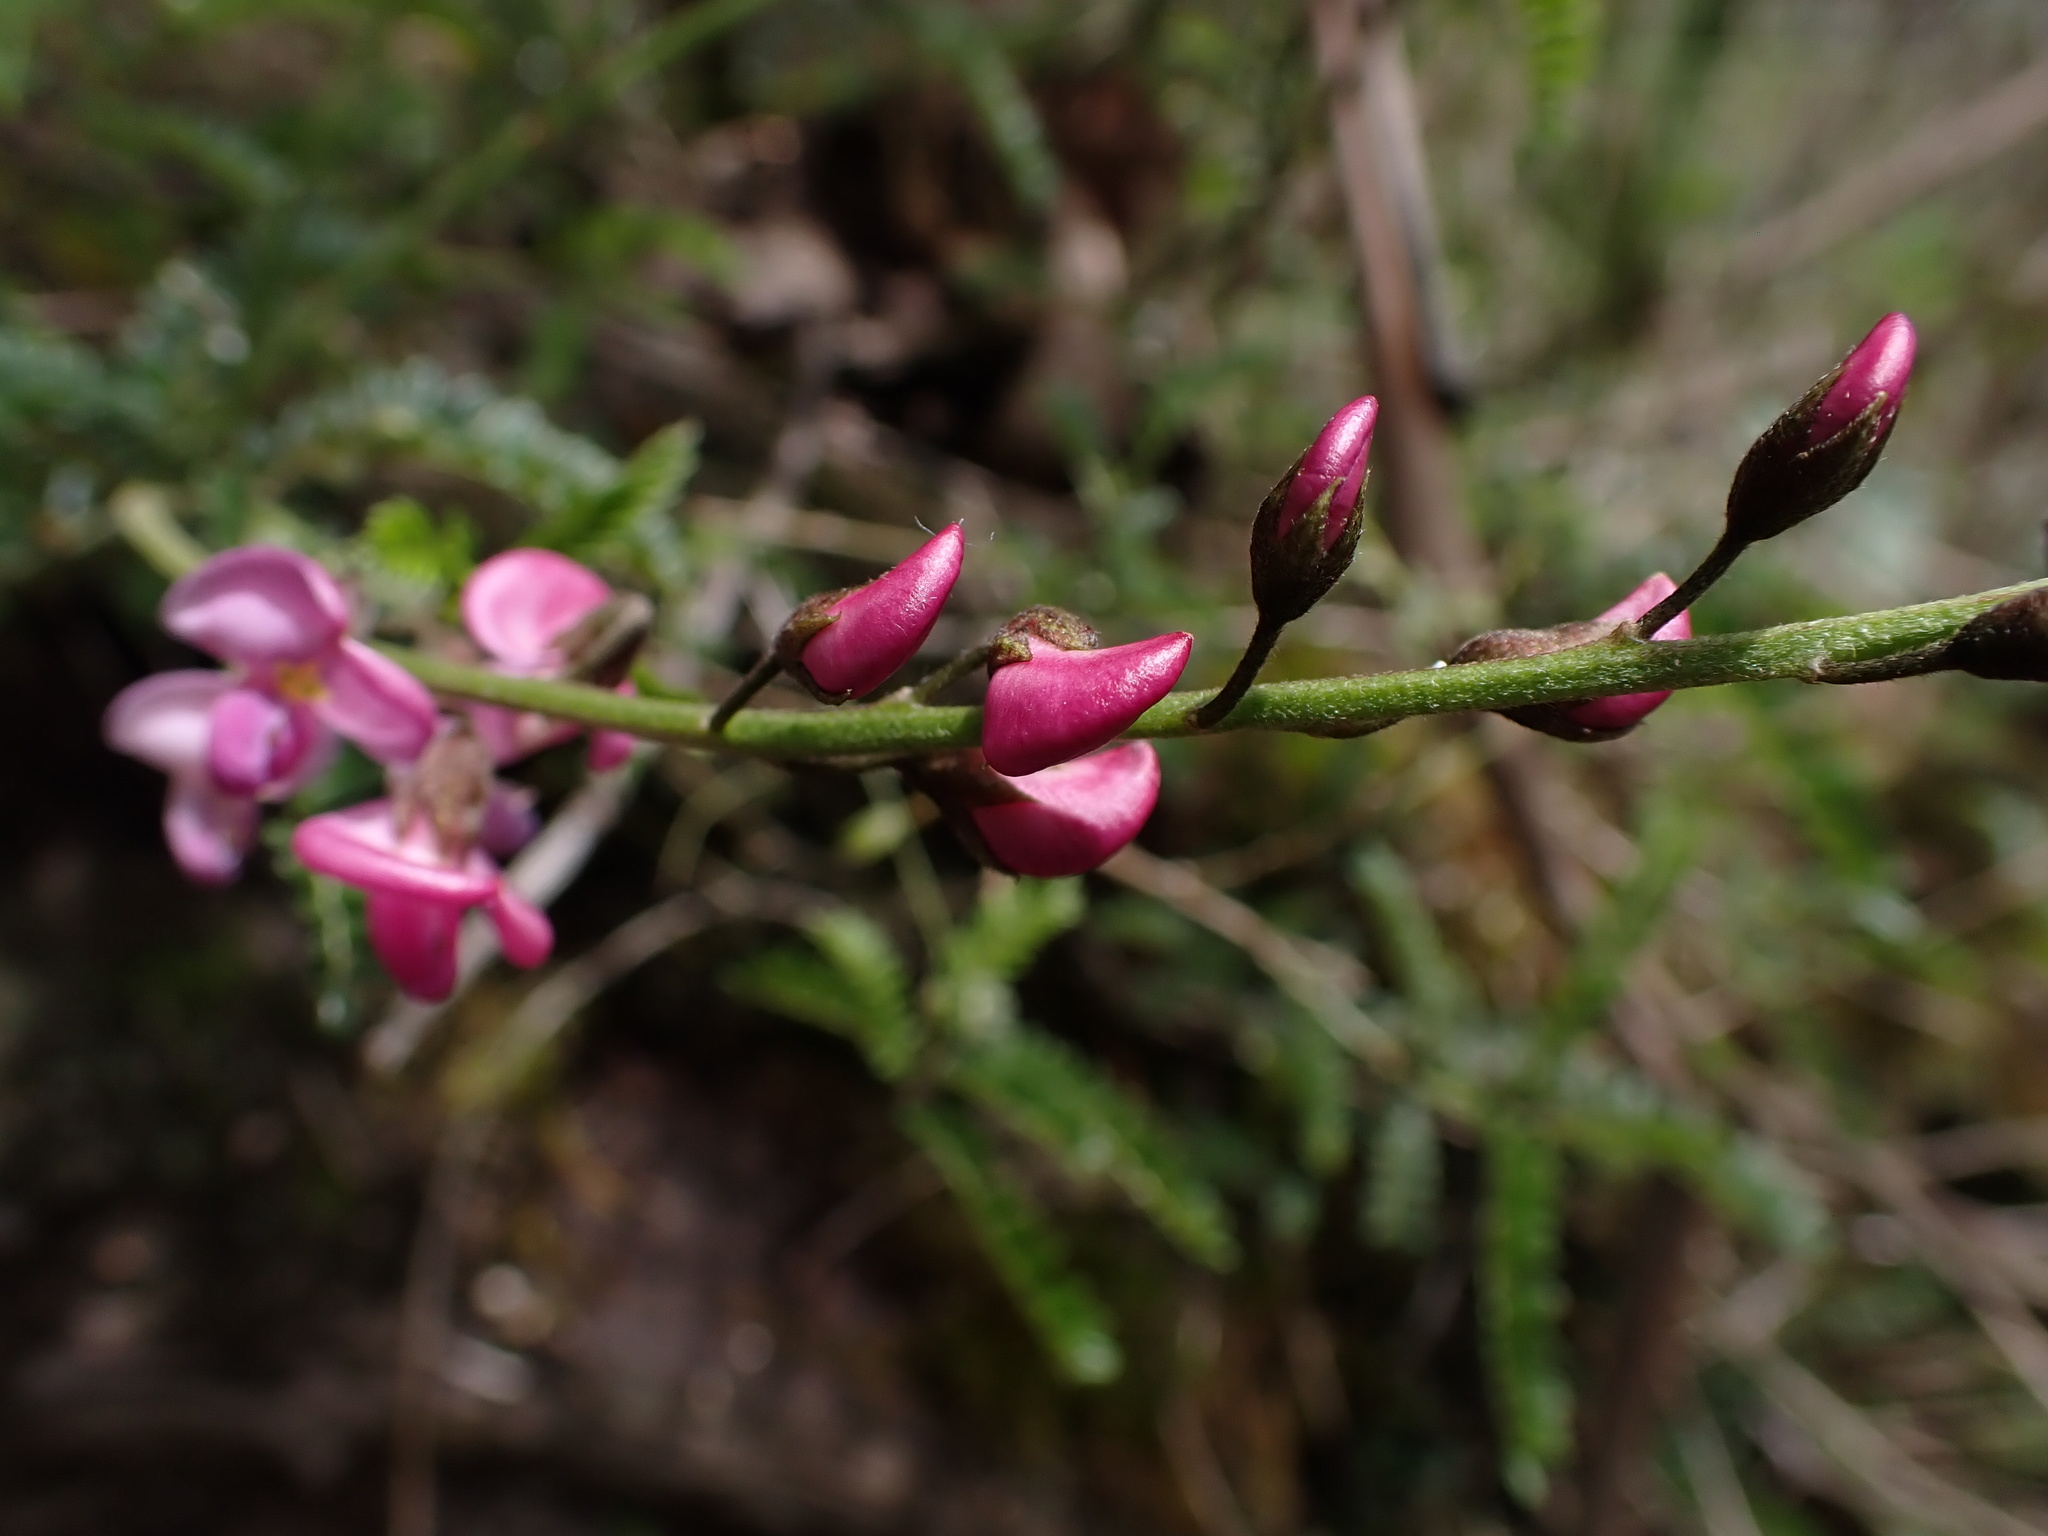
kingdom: Plantae
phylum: Tracheophyta
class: Magnoliopsida
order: Fabales
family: Fabaceae
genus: Coursetia
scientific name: Coursetia dubia
